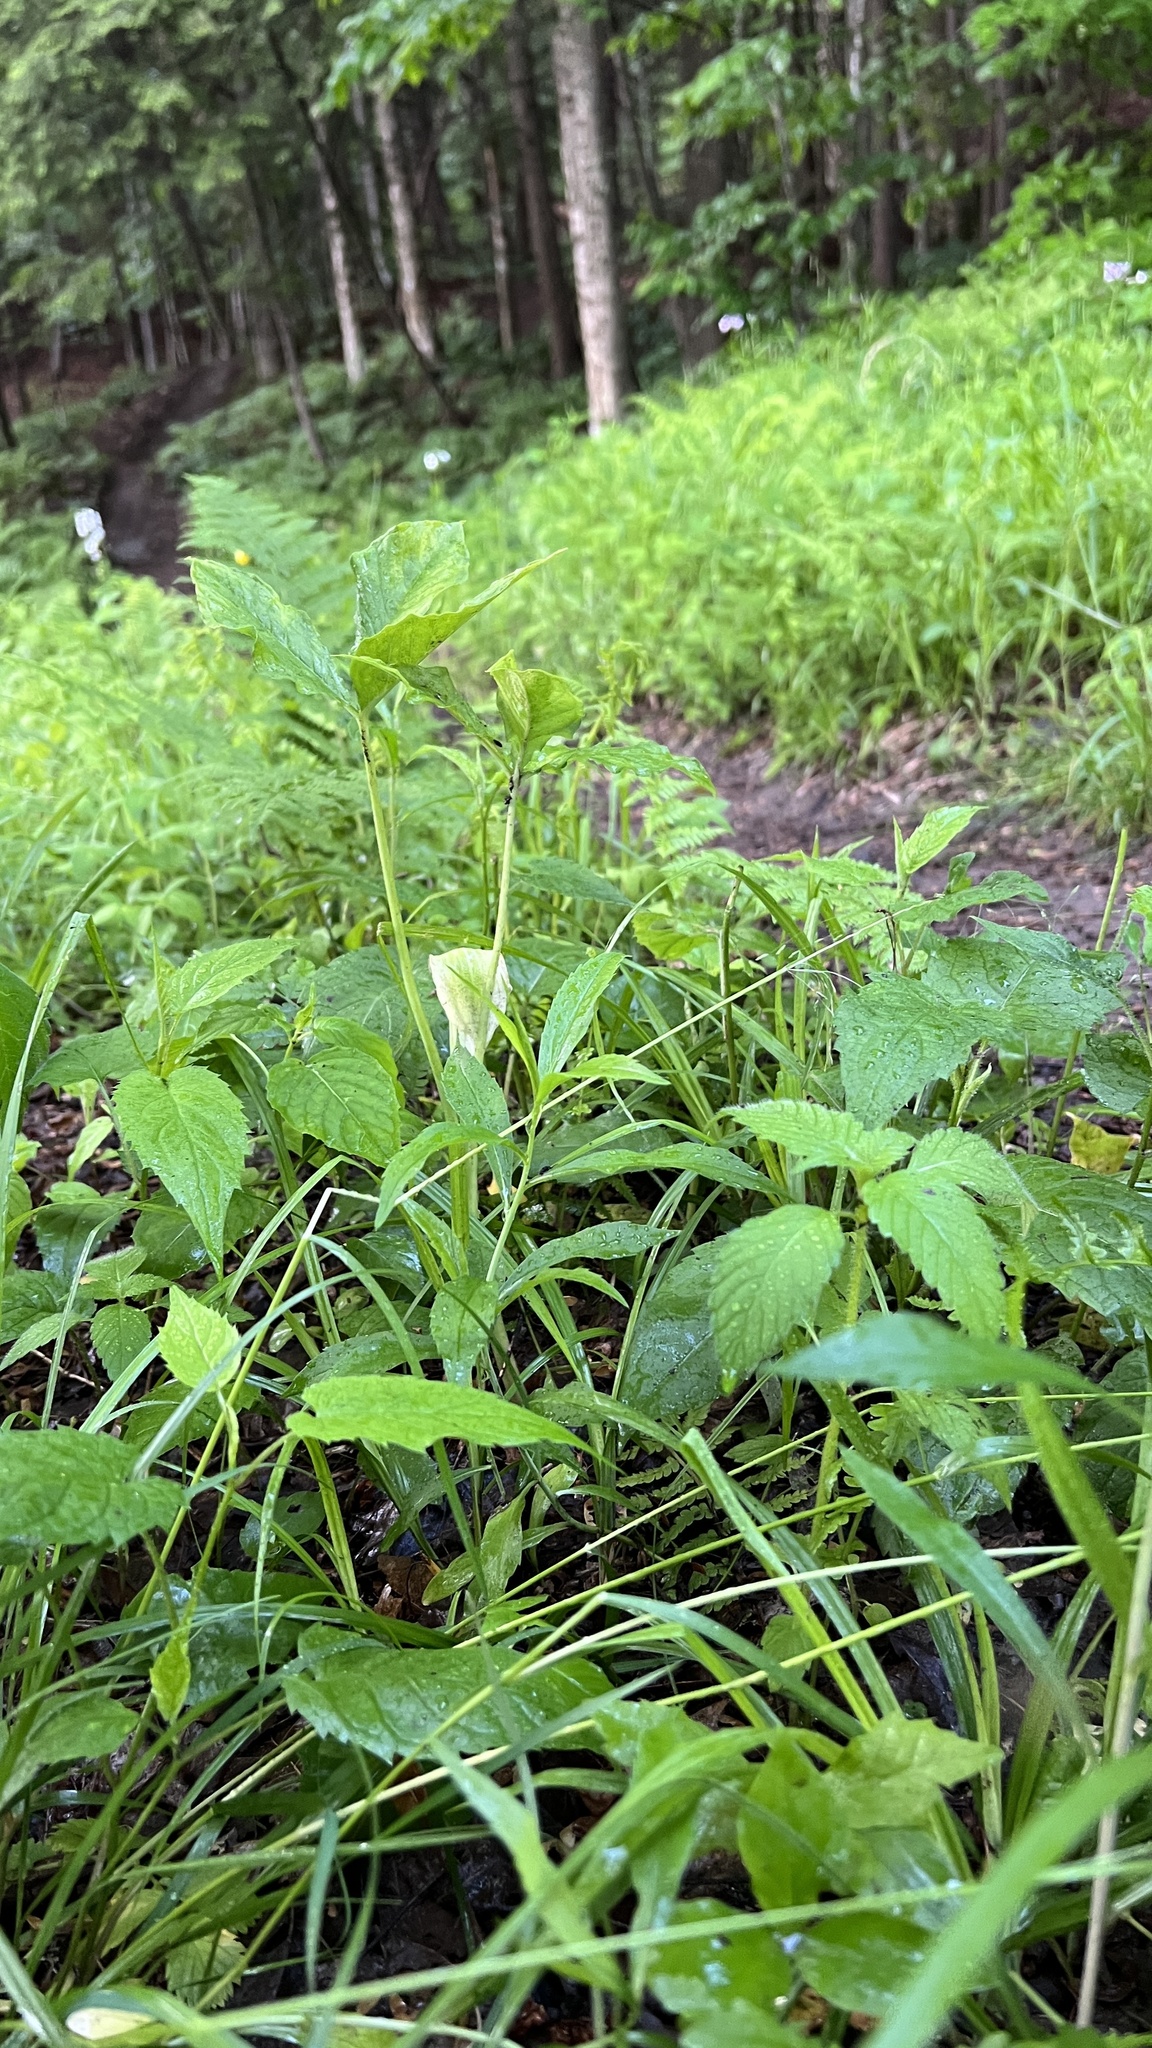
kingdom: Plantae
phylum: Tracheophyta
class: Liliopsida
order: Alismatales
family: Araceae
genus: Arisaema
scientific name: Arisaema triphyllum
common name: Jack-in-the-pulpit
